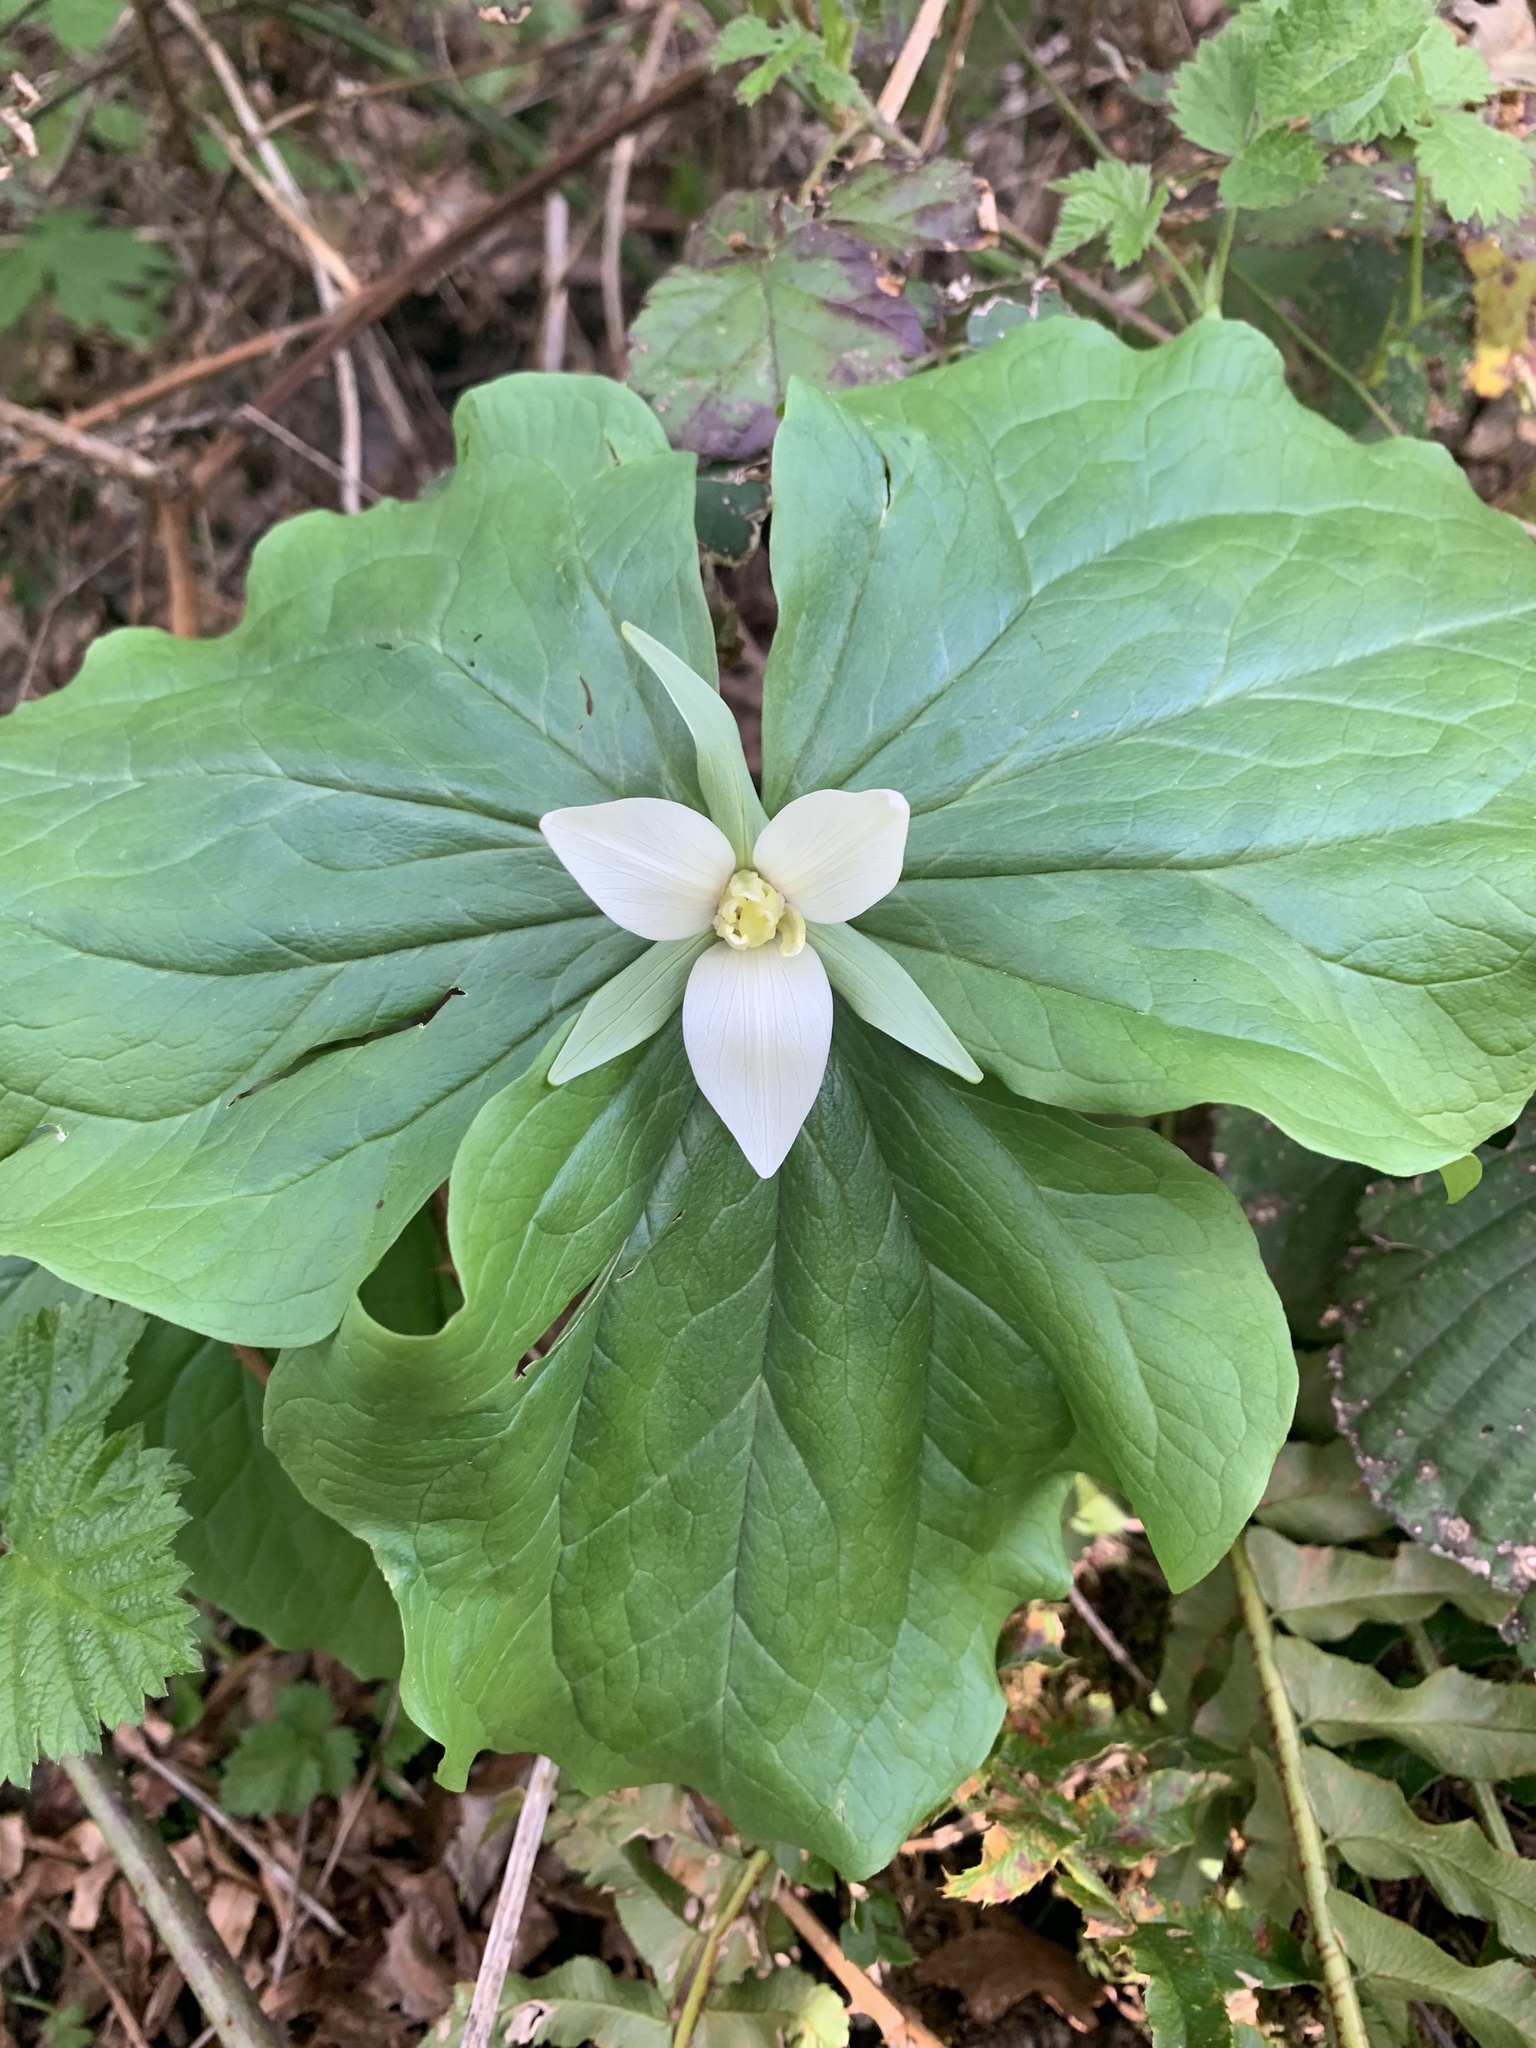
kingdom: Plantae
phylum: Tracheophyta
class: Liliopsida
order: Liliales
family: Melanthiaceae
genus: Trillium
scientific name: Trillium albidum
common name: Freeman's trillium
